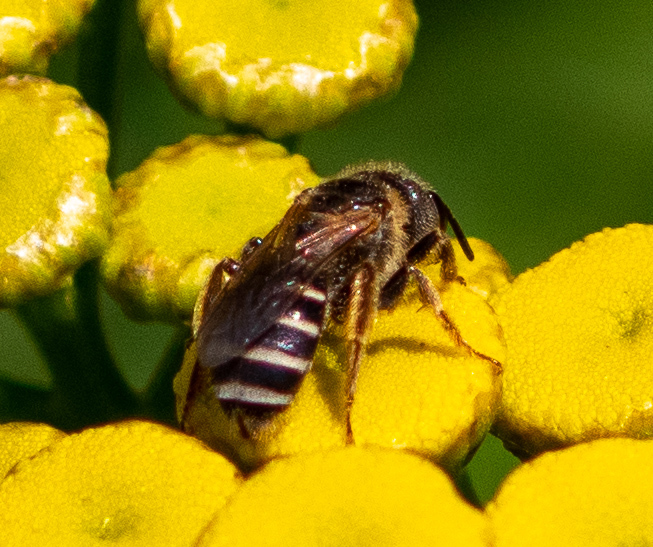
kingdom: Animalia
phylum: Arthropoda
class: Insecta
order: Hymenoptera
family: Halictidae
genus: Halictus
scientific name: Halictus ligatus
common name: Ligated furrow bee
